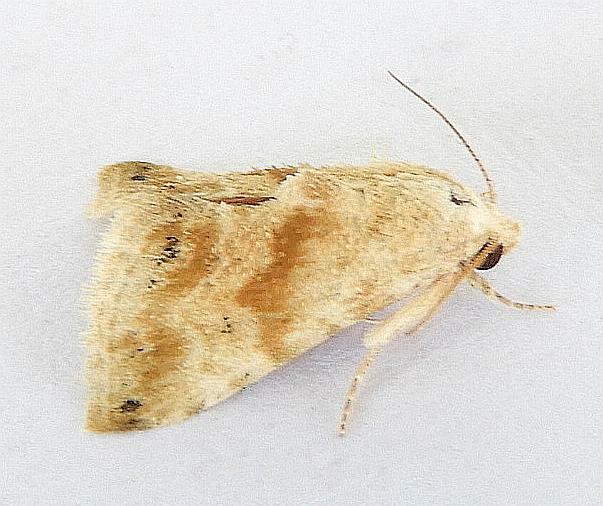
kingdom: Animalia
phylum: Arthropoda
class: Insecta
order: Lepidoptera
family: Noctuidae
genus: Eublemma
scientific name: Eublemma minima
